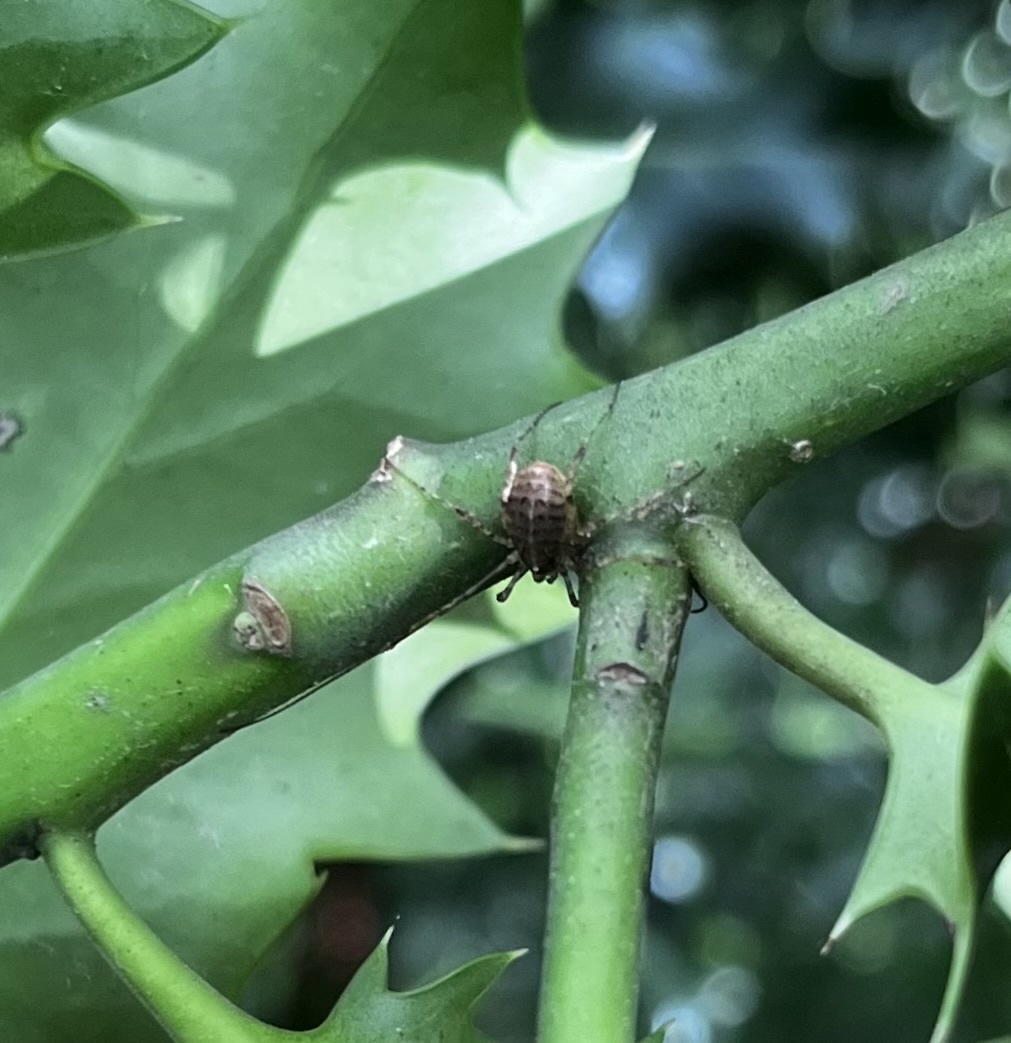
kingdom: Animalia
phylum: Arthropoda
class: Arachnida
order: Opiliones
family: Phalangiidae
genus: Paroligolophus
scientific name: Paroligolophus agrestis
